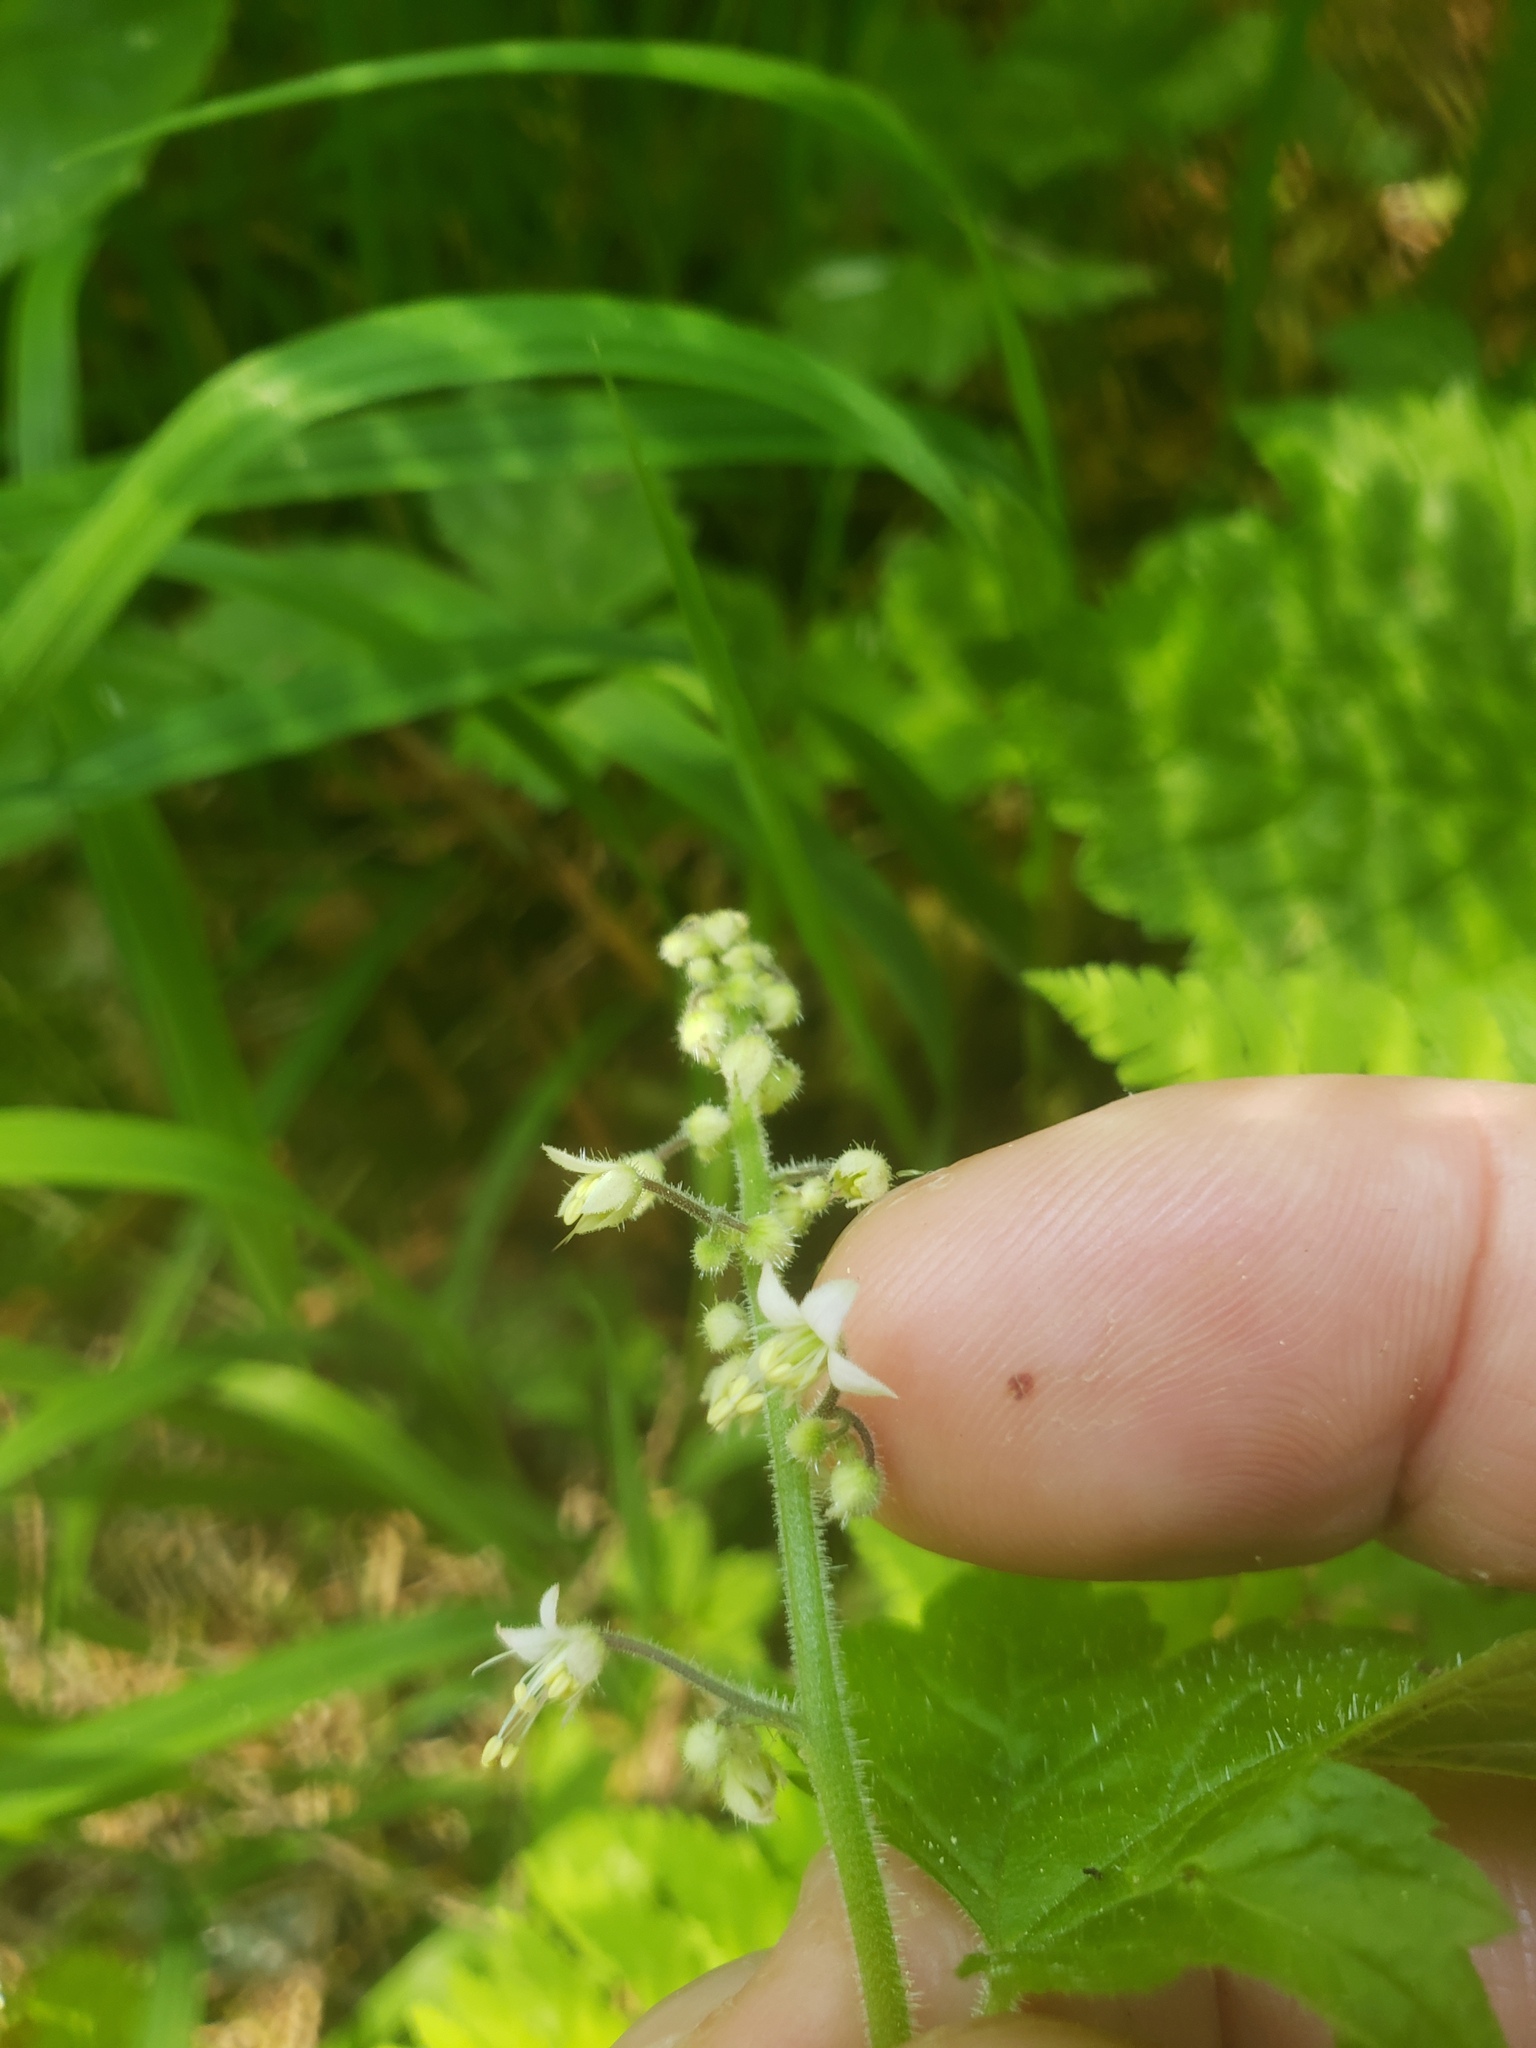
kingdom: Plantae
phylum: Tracheophyta
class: Magnoliopsida
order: Saxifragales
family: Saxifragaceae
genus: Tiarella
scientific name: Tiarella trifoliata
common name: Sugar-scoop
